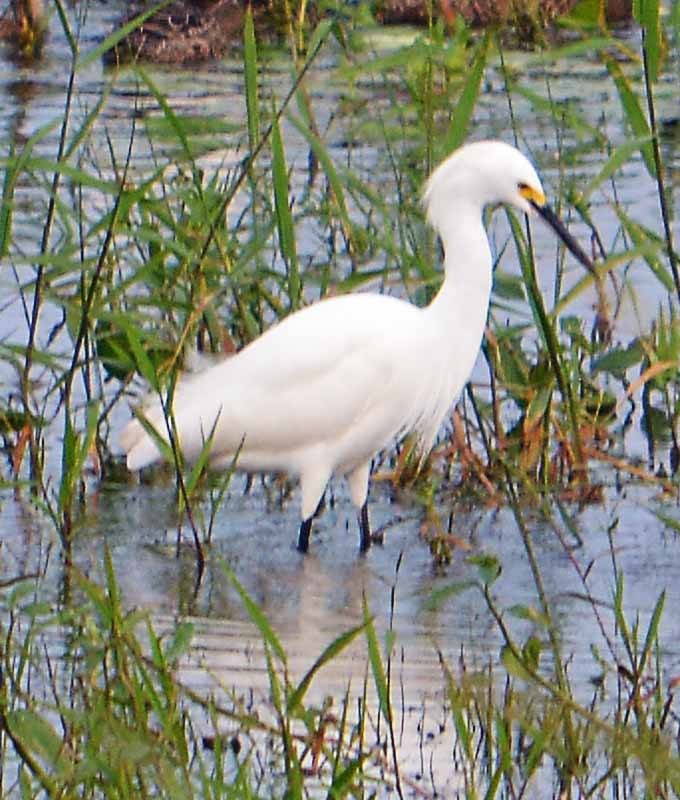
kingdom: Animalia
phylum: Chordata
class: Aves
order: Pelecaniformes
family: Ardeidae
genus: Egretta
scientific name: Egretta thula
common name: Snowy egret
